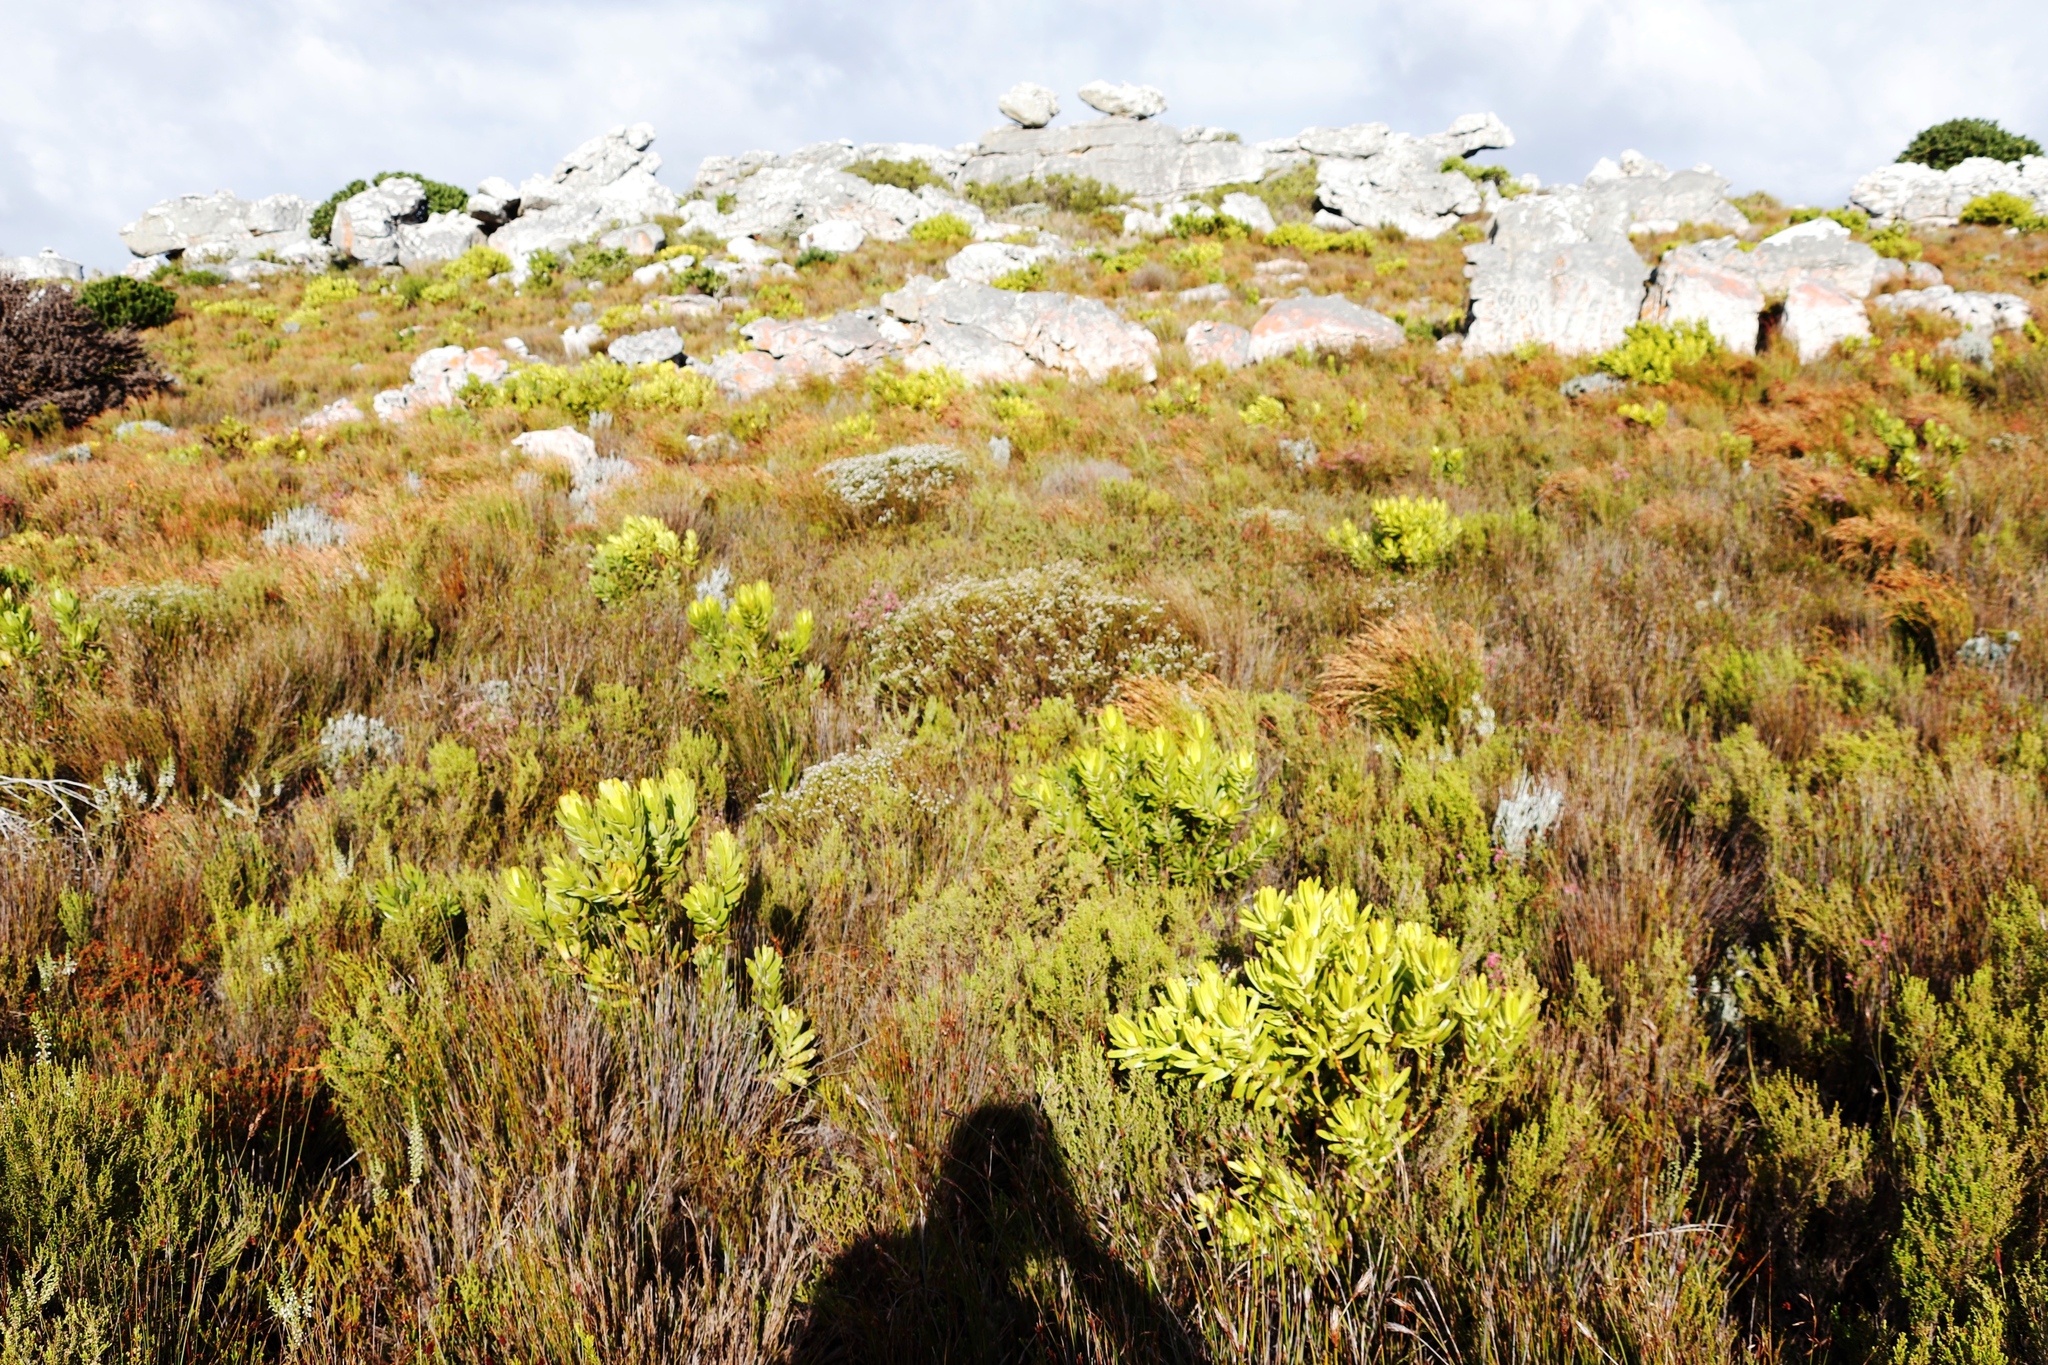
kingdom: Plantae
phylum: Tracheophyta
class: Magnoliopsida
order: Proteales
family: Proteaceae
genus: Leucadendron
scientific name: Leucadendron laureolum
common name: Golden sunshinebush
